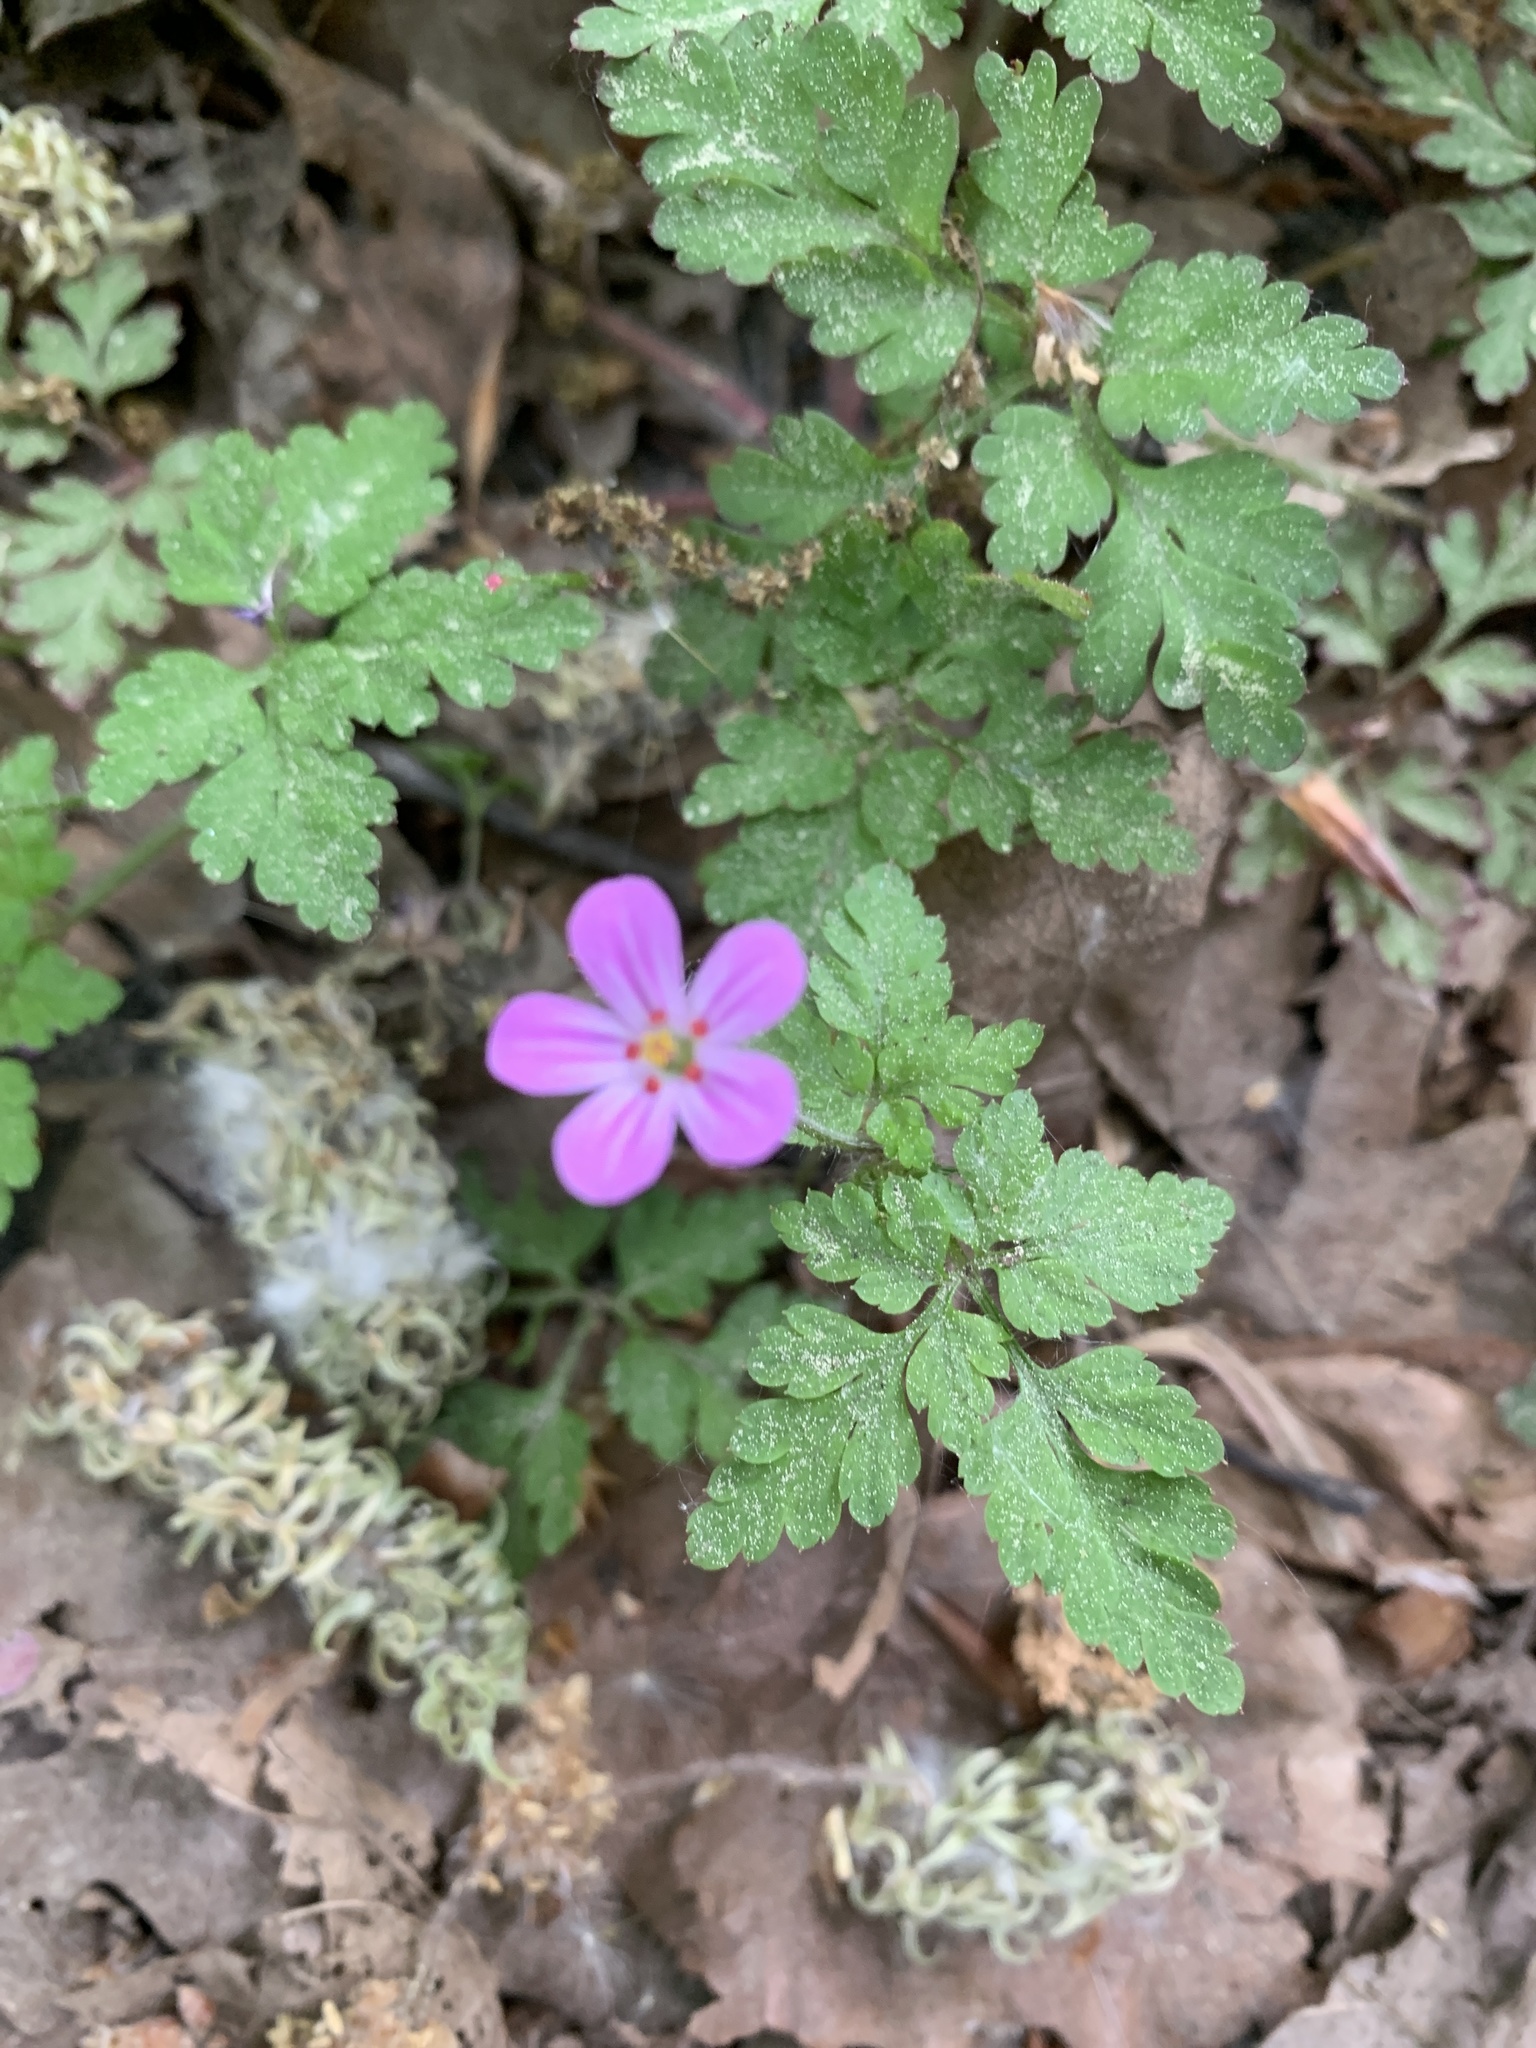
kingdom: Plantae
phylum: Tracheophyta
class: Magnoliopsida
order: Geraniales
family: Geraniaceae
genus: Geranium
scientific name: Geranium robertianum
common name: Herb-robert
